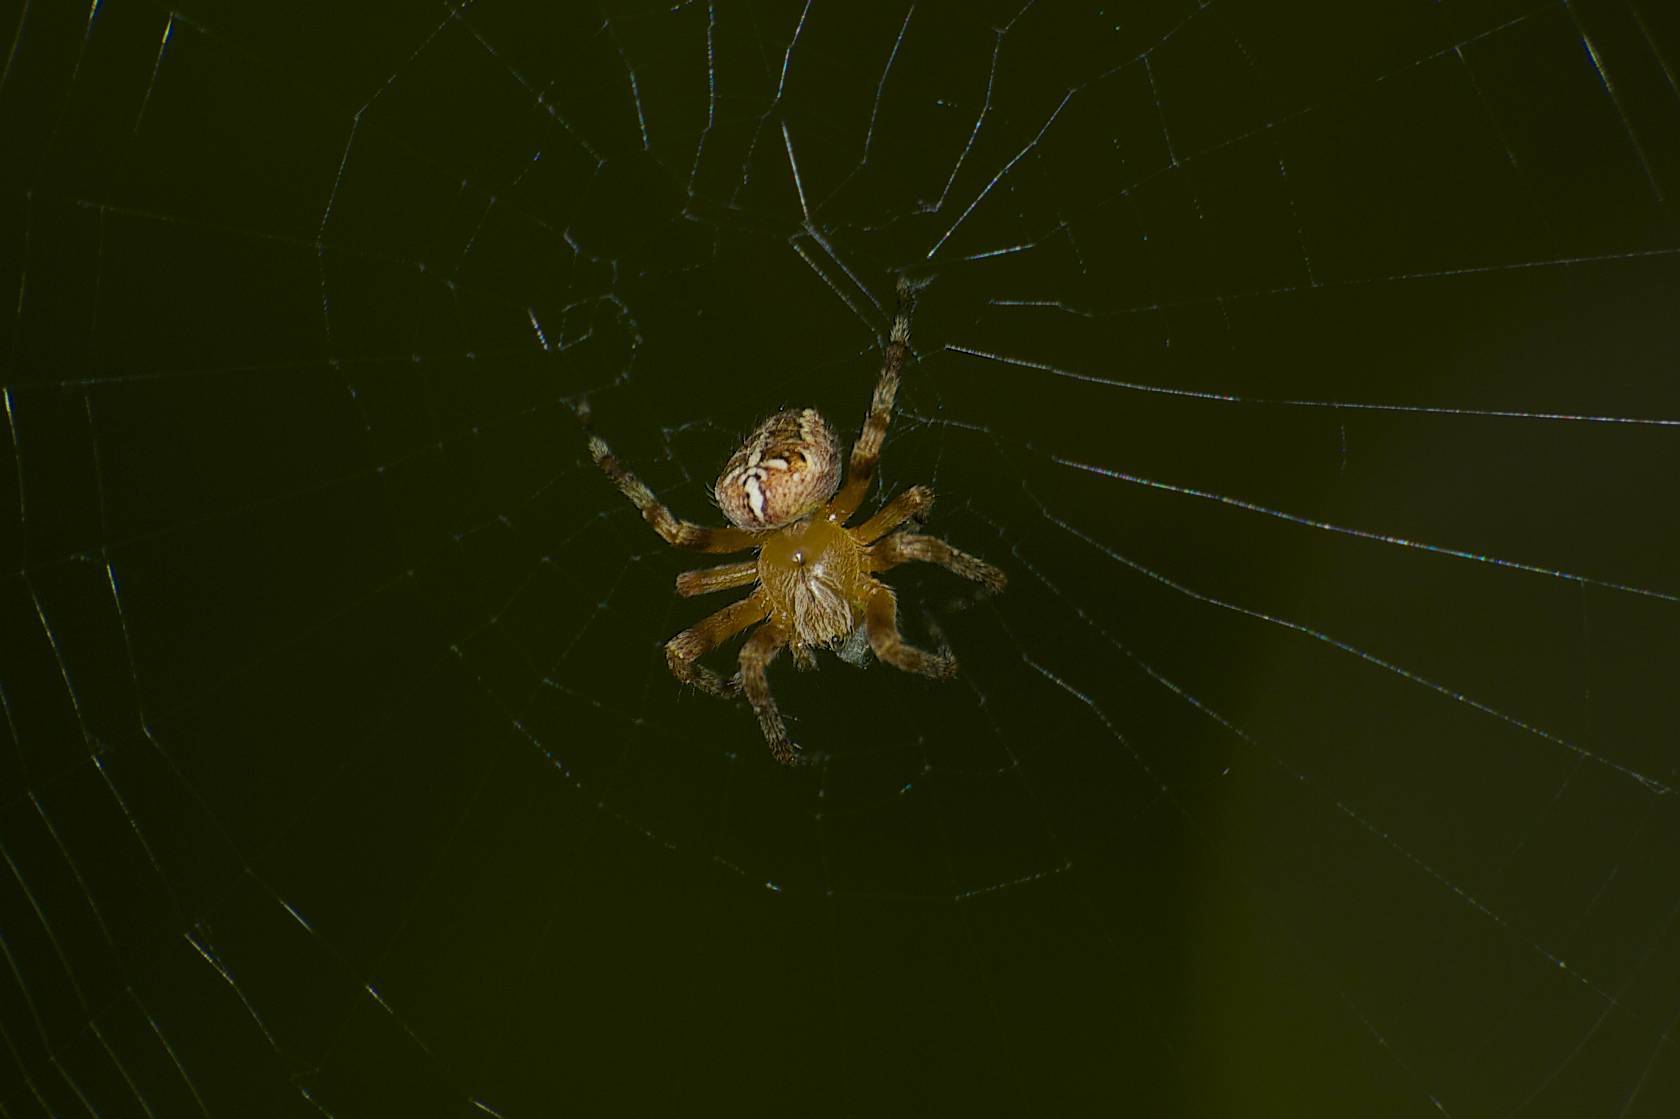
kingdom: Animalia
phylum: Arthropoda
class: Arachnida
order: Araneae
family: Araneidae
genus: Araneus
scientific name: Araneus diadematus
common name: Cross orbweaver
